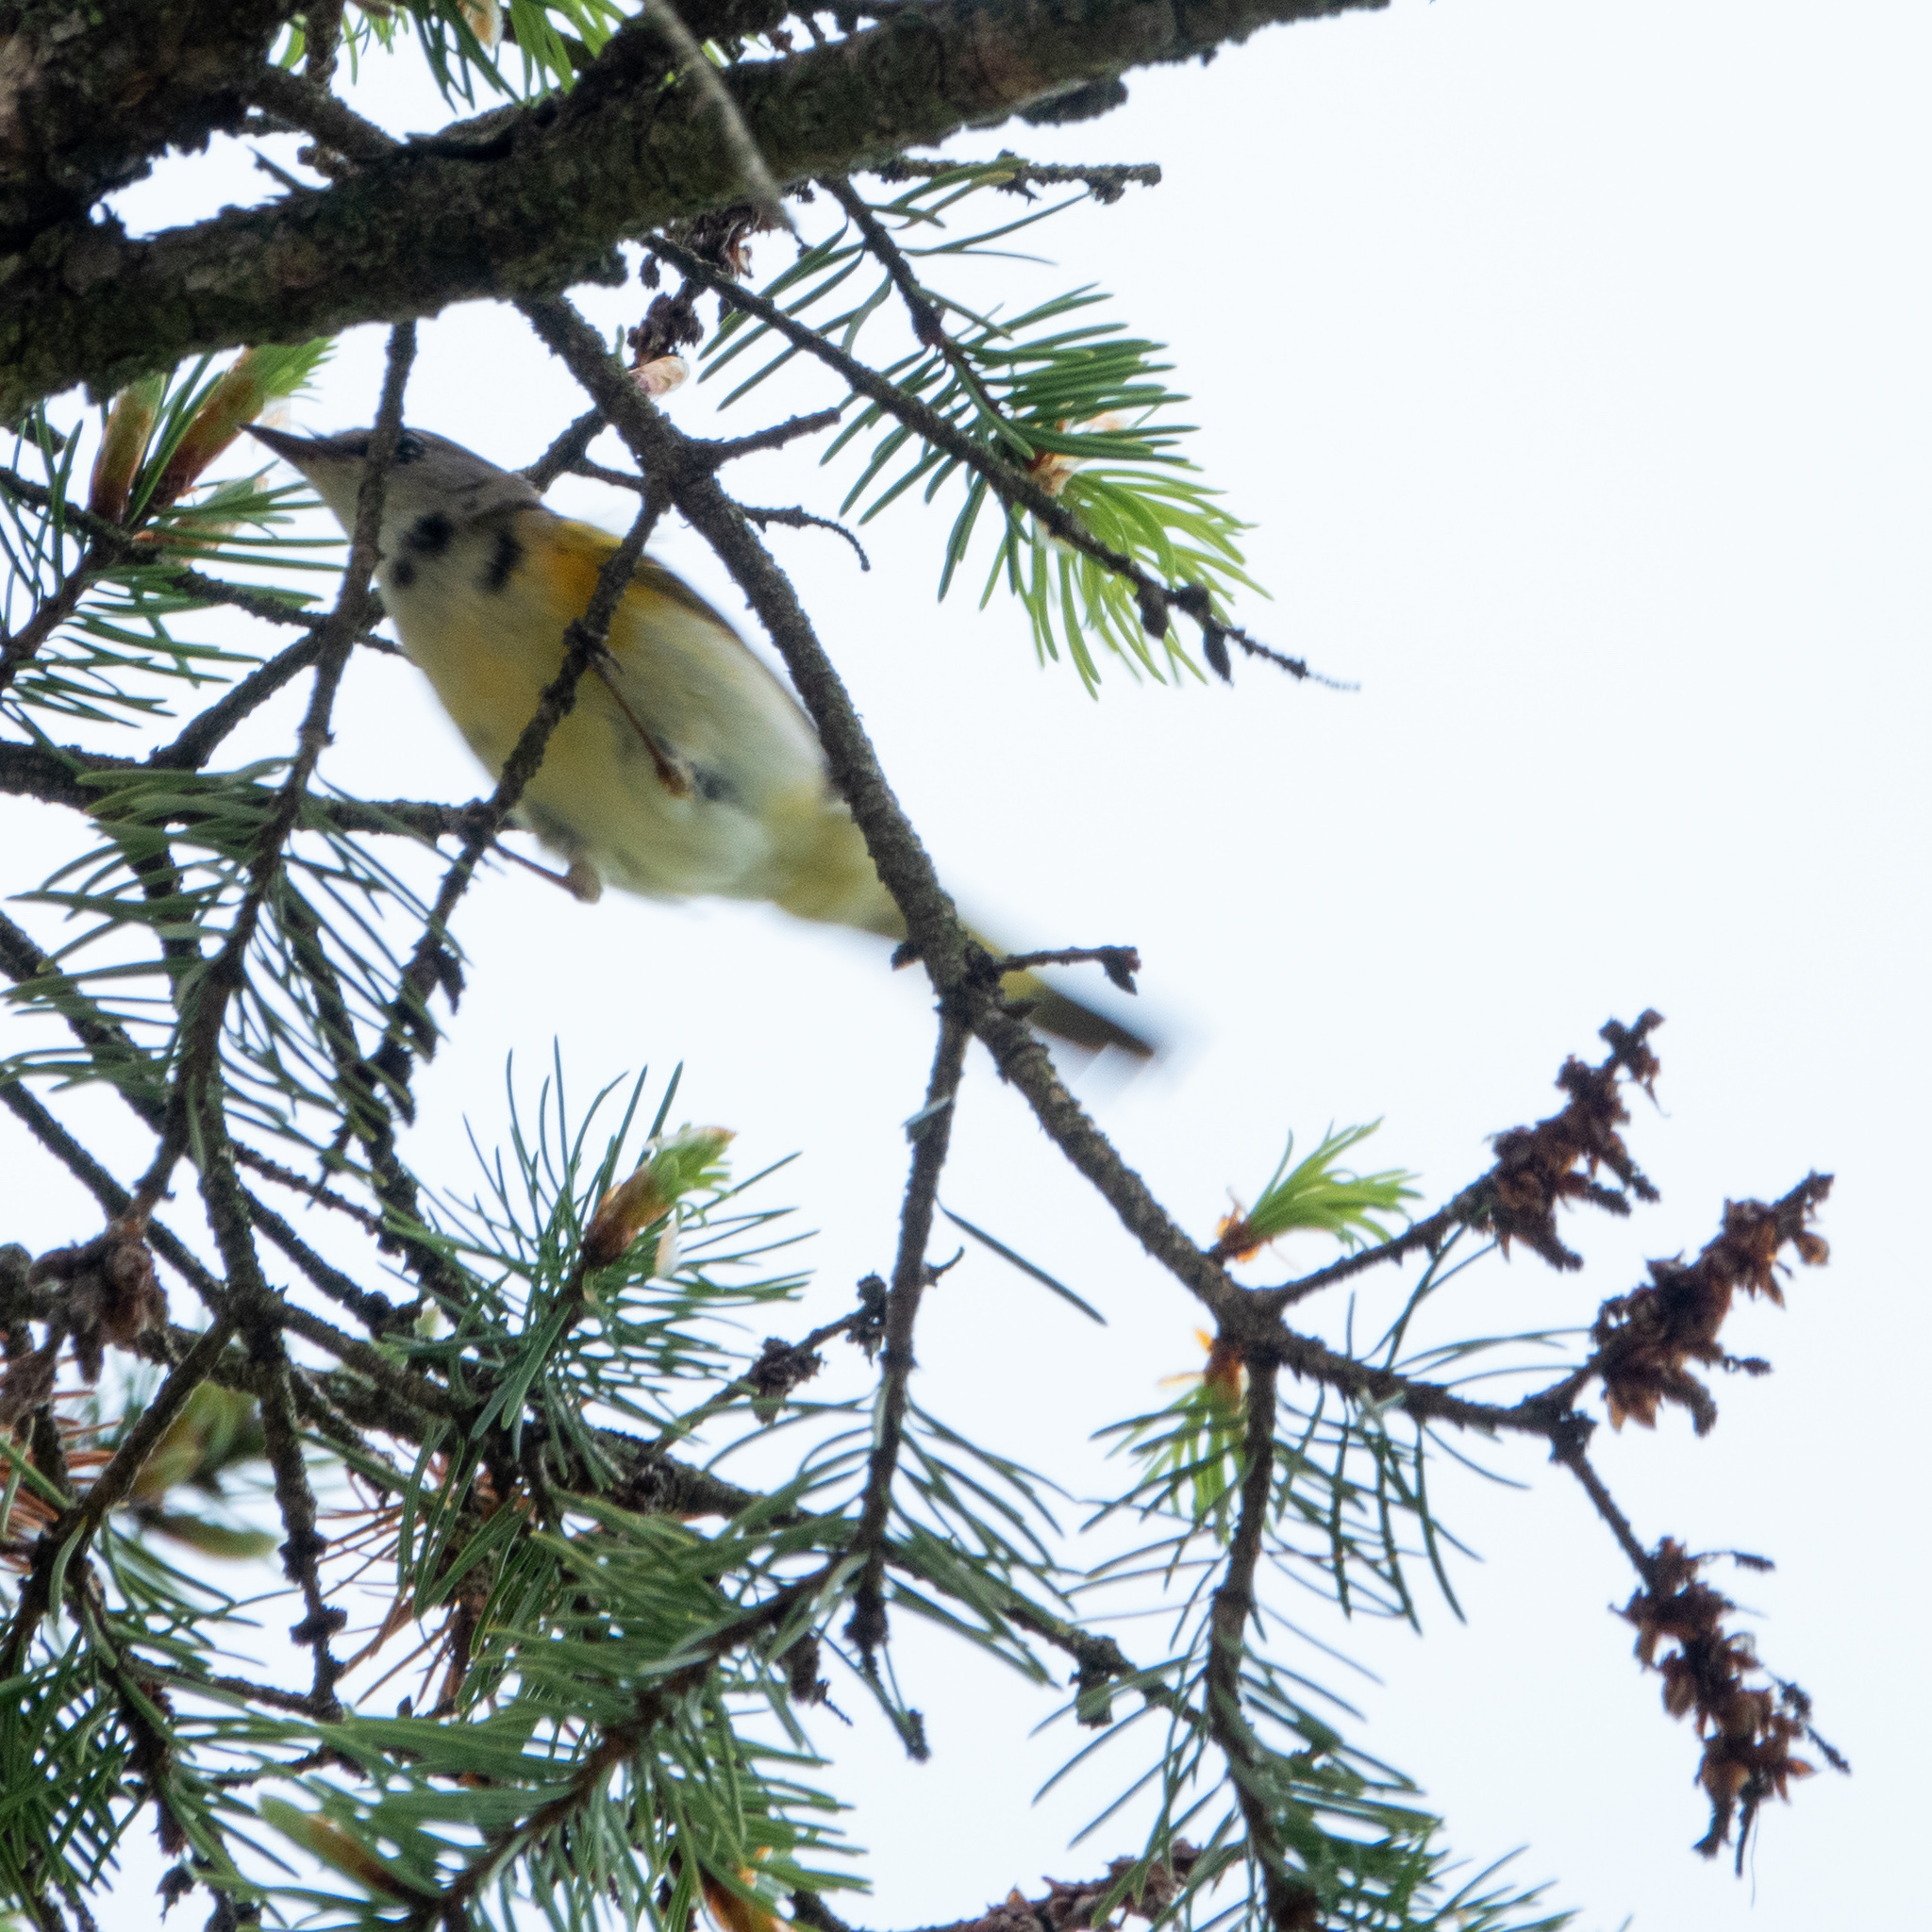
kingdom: Animalia
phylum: Chordata
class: Aves
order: Passeriformes
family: Parulidae
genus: Setophaga
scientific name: Setophaga ruticilla
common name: American redstart
